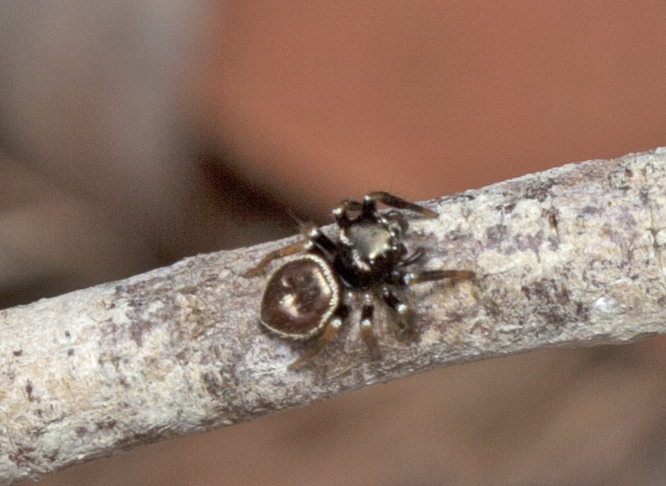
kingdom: Animalia
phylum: Arthropoda
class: Arachnida
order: Araneae
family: Salticidae
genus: Zenodorus
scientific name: Zenodorus orbiculatus
